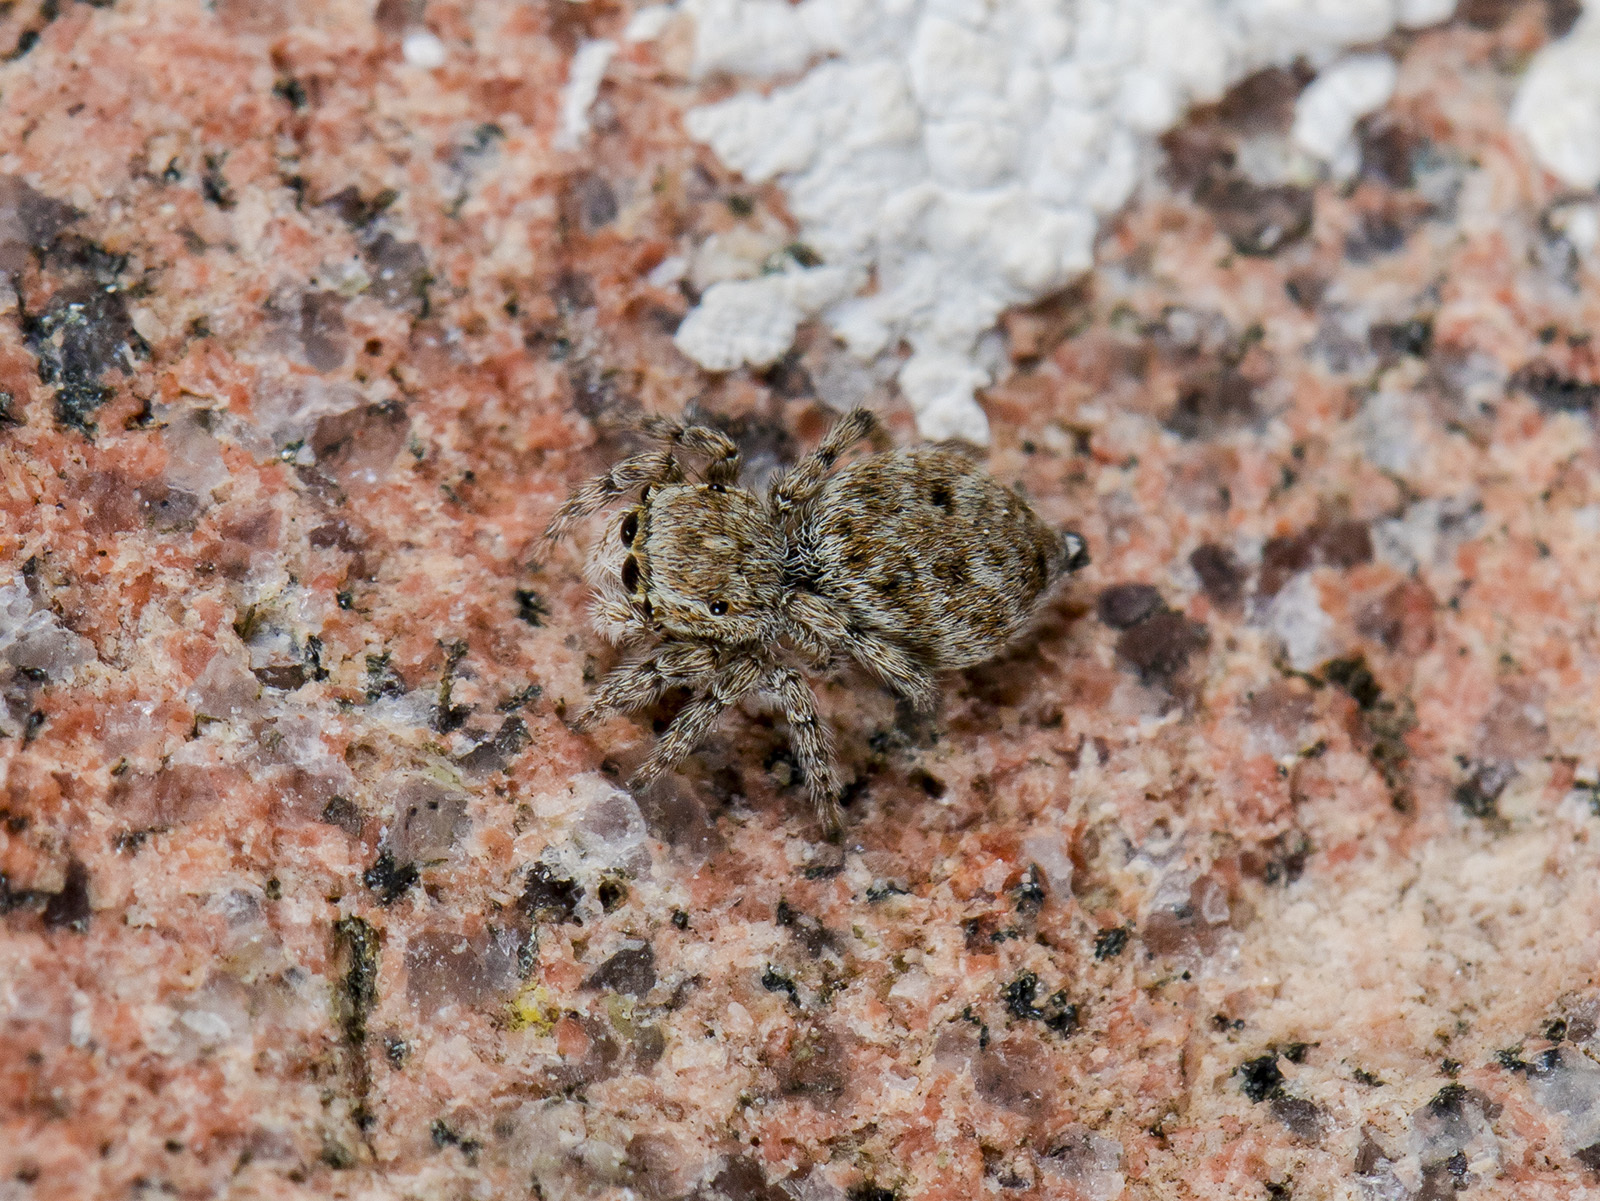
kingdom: Animalia
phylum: Arthropoda
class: Arachnida
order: Araneae
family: Salticidae
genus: Attulus
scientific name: Attulus distinguendus
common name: Distinguished jumper
